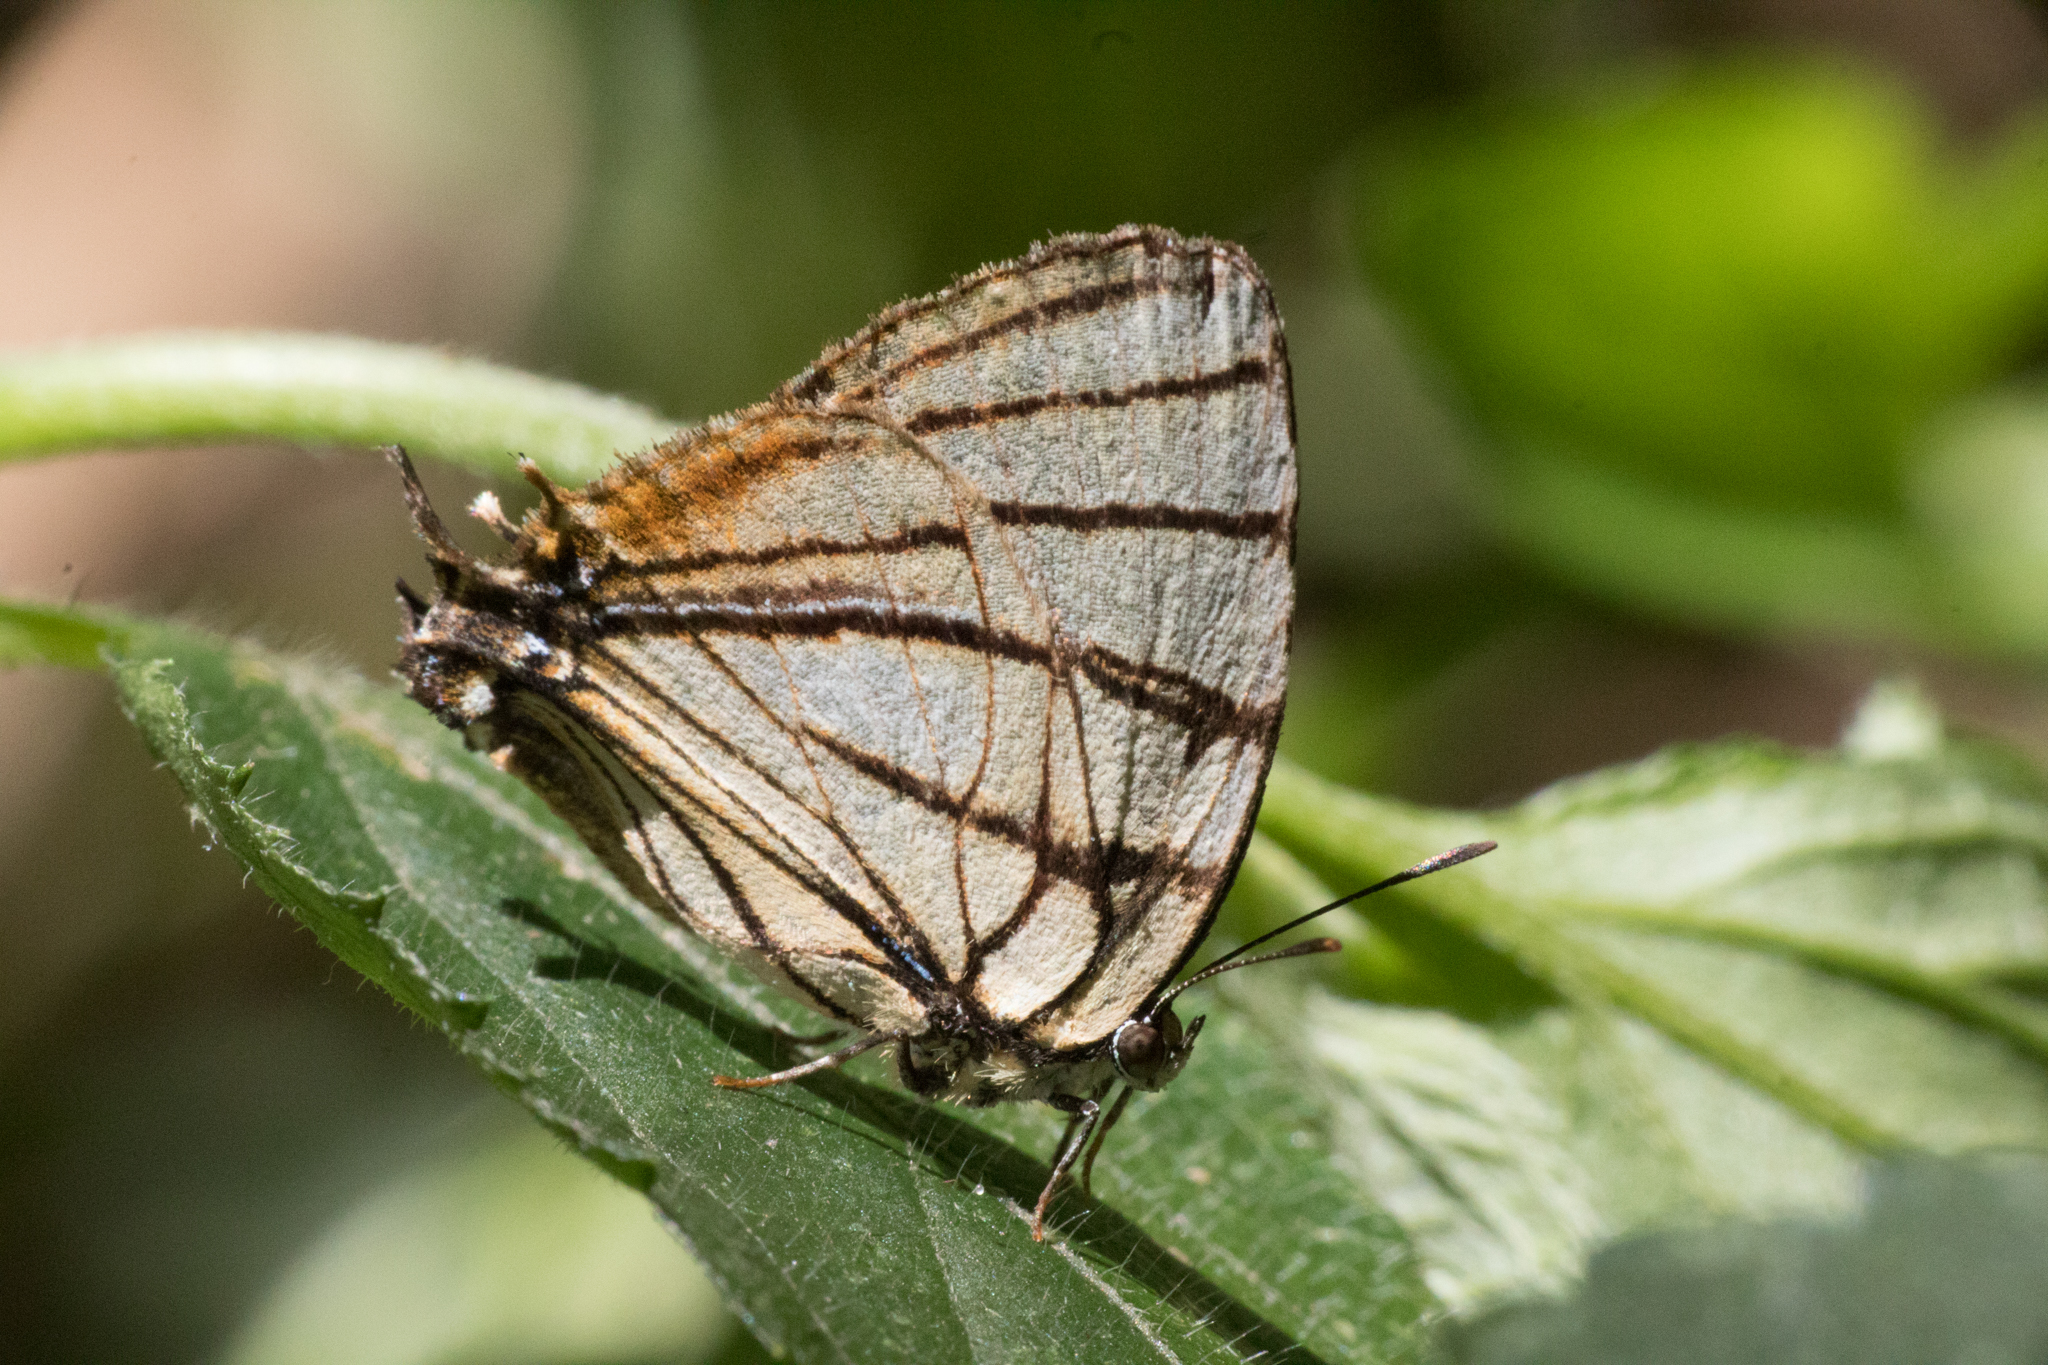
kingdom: Animalia
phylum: Arthropoda
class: Insecta
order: Lepidoptera
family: Lycaenidae
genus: Arawacus
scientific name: Arawacus melibaeus
